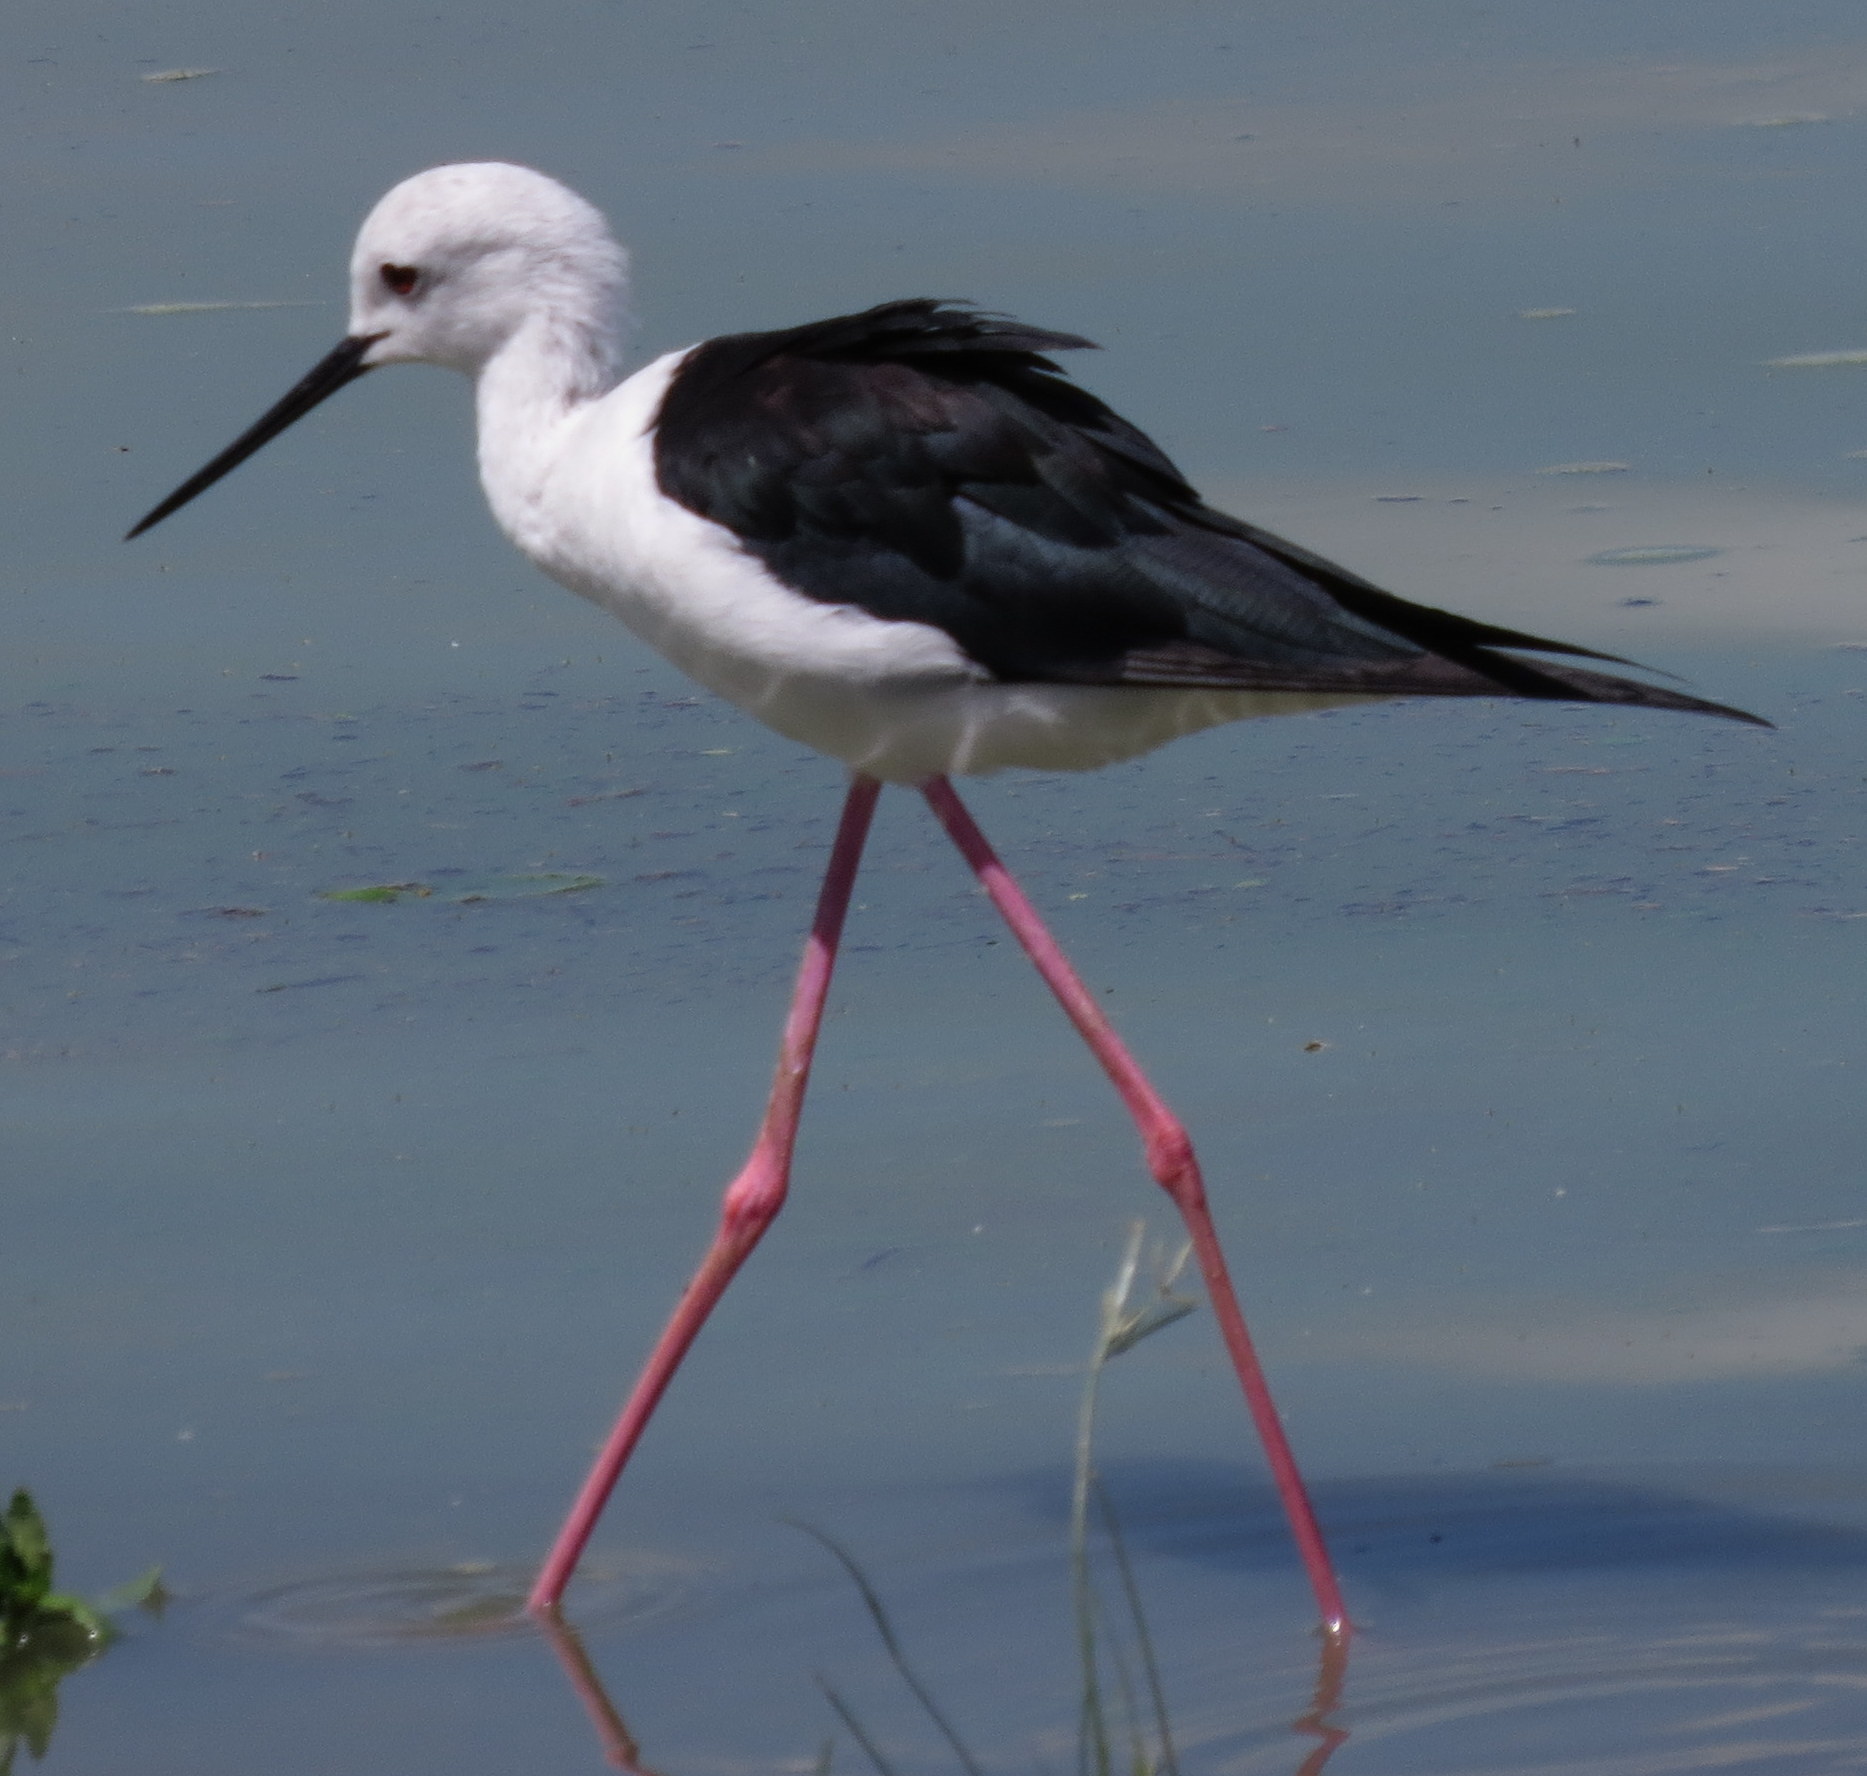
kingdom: Animalia
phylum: Chordata
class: Aves
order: Charadriiformes
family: Recurvirostridae
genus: Himantopus
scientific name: Himantopus himantopus
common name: Black-winged stilt
